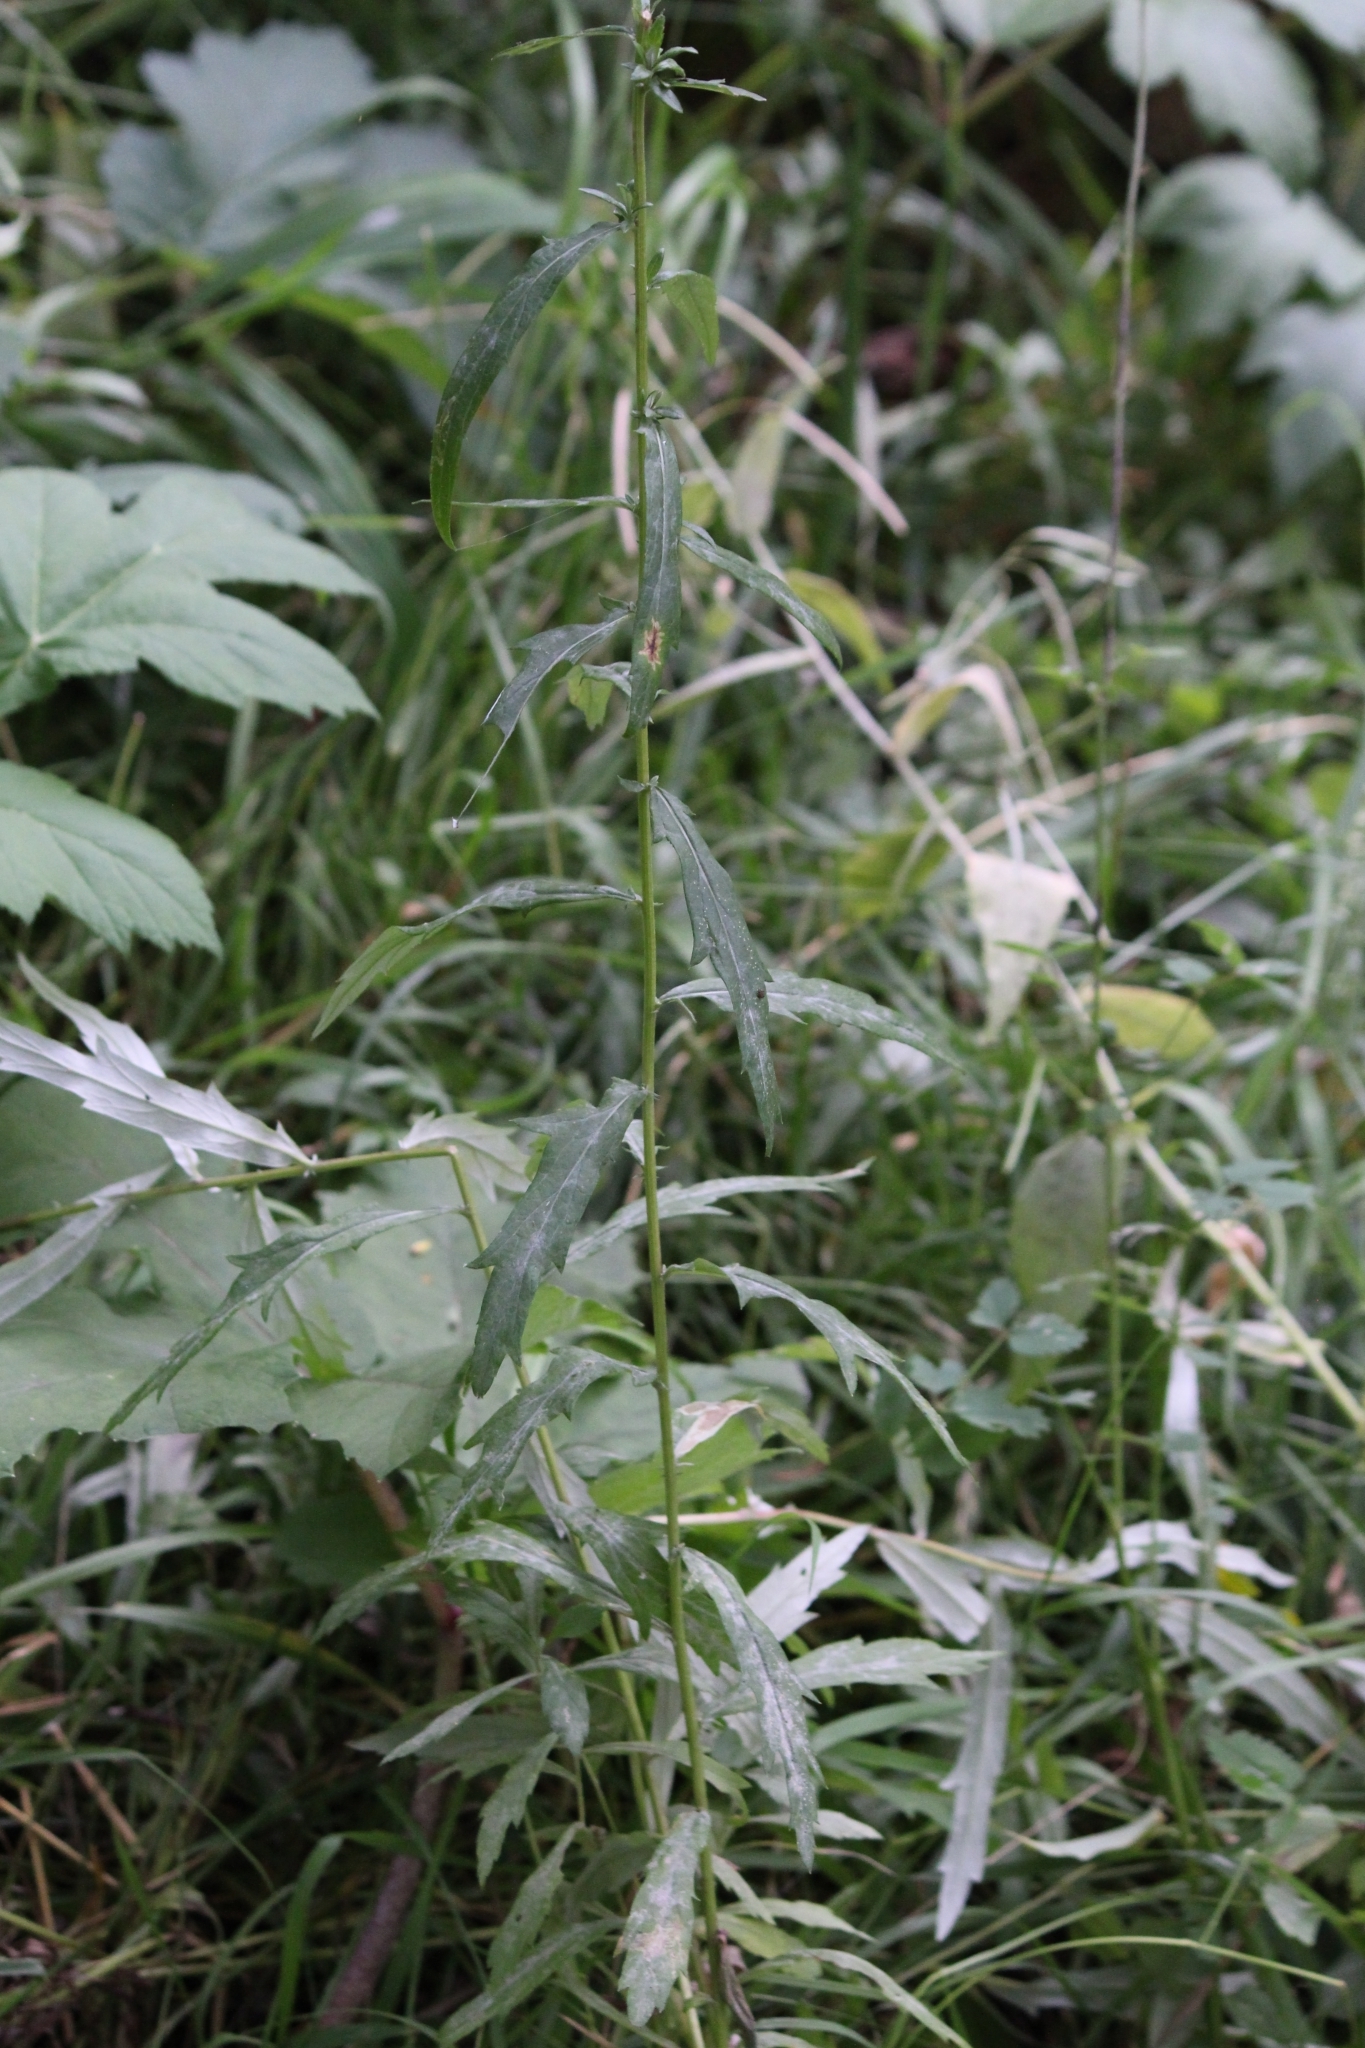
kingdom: Plantae
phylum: Tracheophyta
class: Magnoliopsida
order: Asterales
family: Asteraceae
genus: Artemisia
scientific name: Artemisia integrifolia
